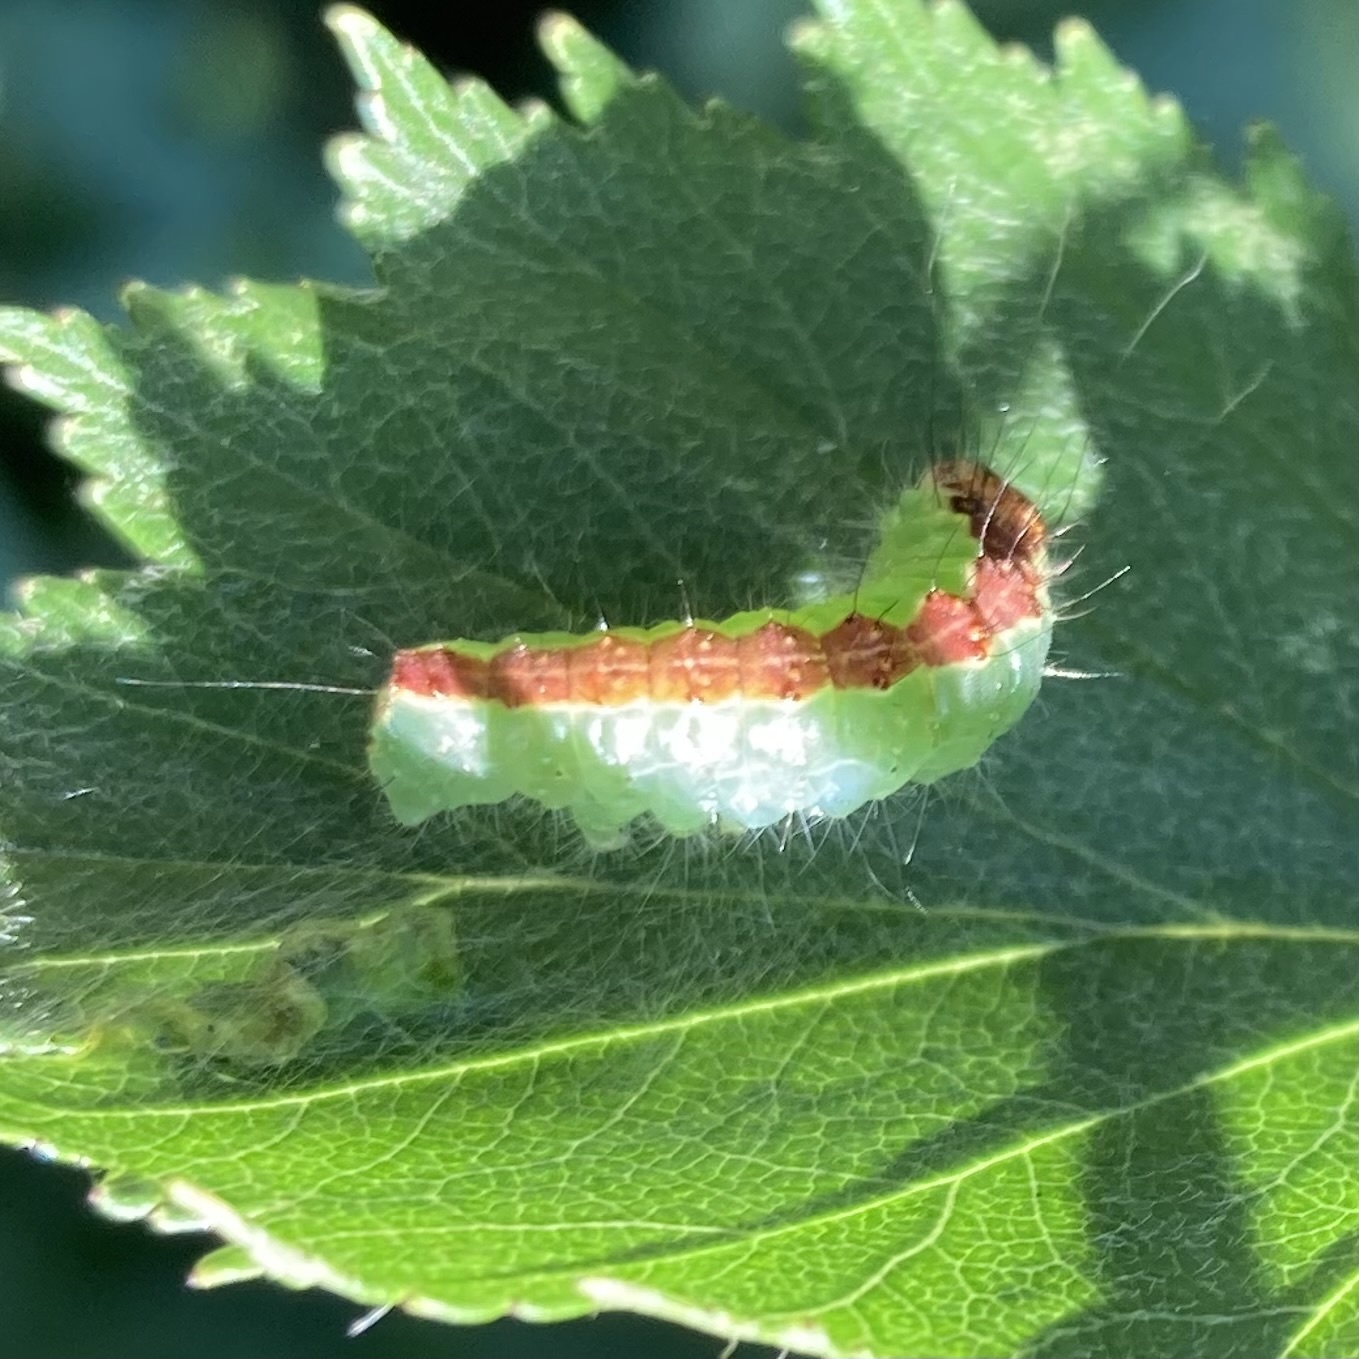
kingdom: Animalia
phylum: Arthropoda
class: Insecta
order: Lepidoptera
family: Noctuidae
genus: Acronicta
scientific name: Acronicta superans
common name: Splendid dagger
